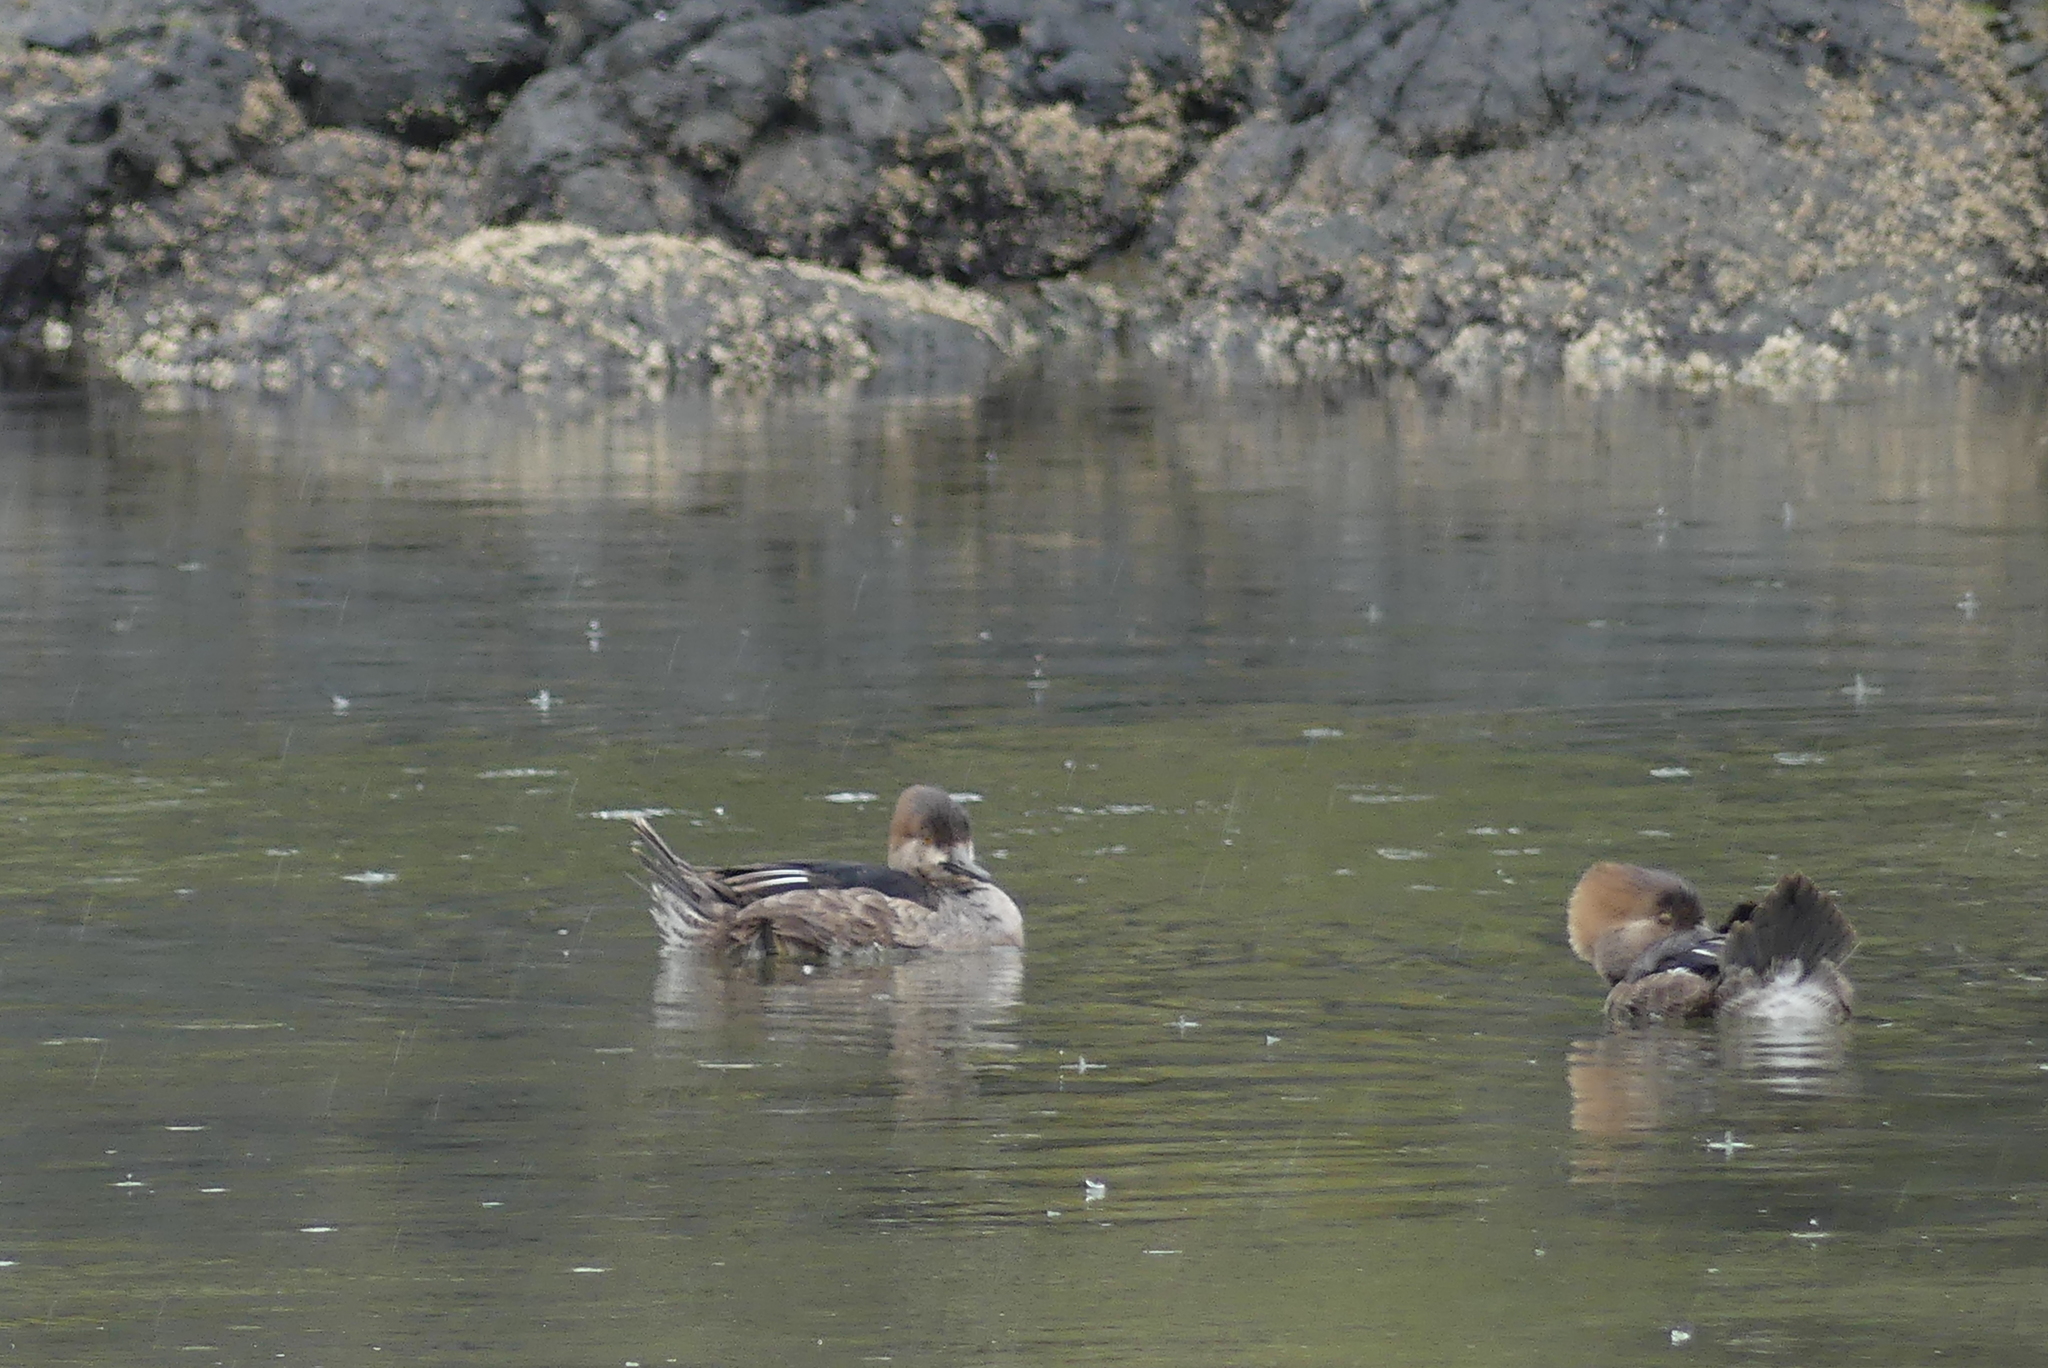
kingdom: Animalia
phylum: Chordata
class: Aves
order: Anseriformes
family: Anatidae
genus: Lophodytes
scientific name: Lophodytes cucullatus
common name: Hooded merganser
